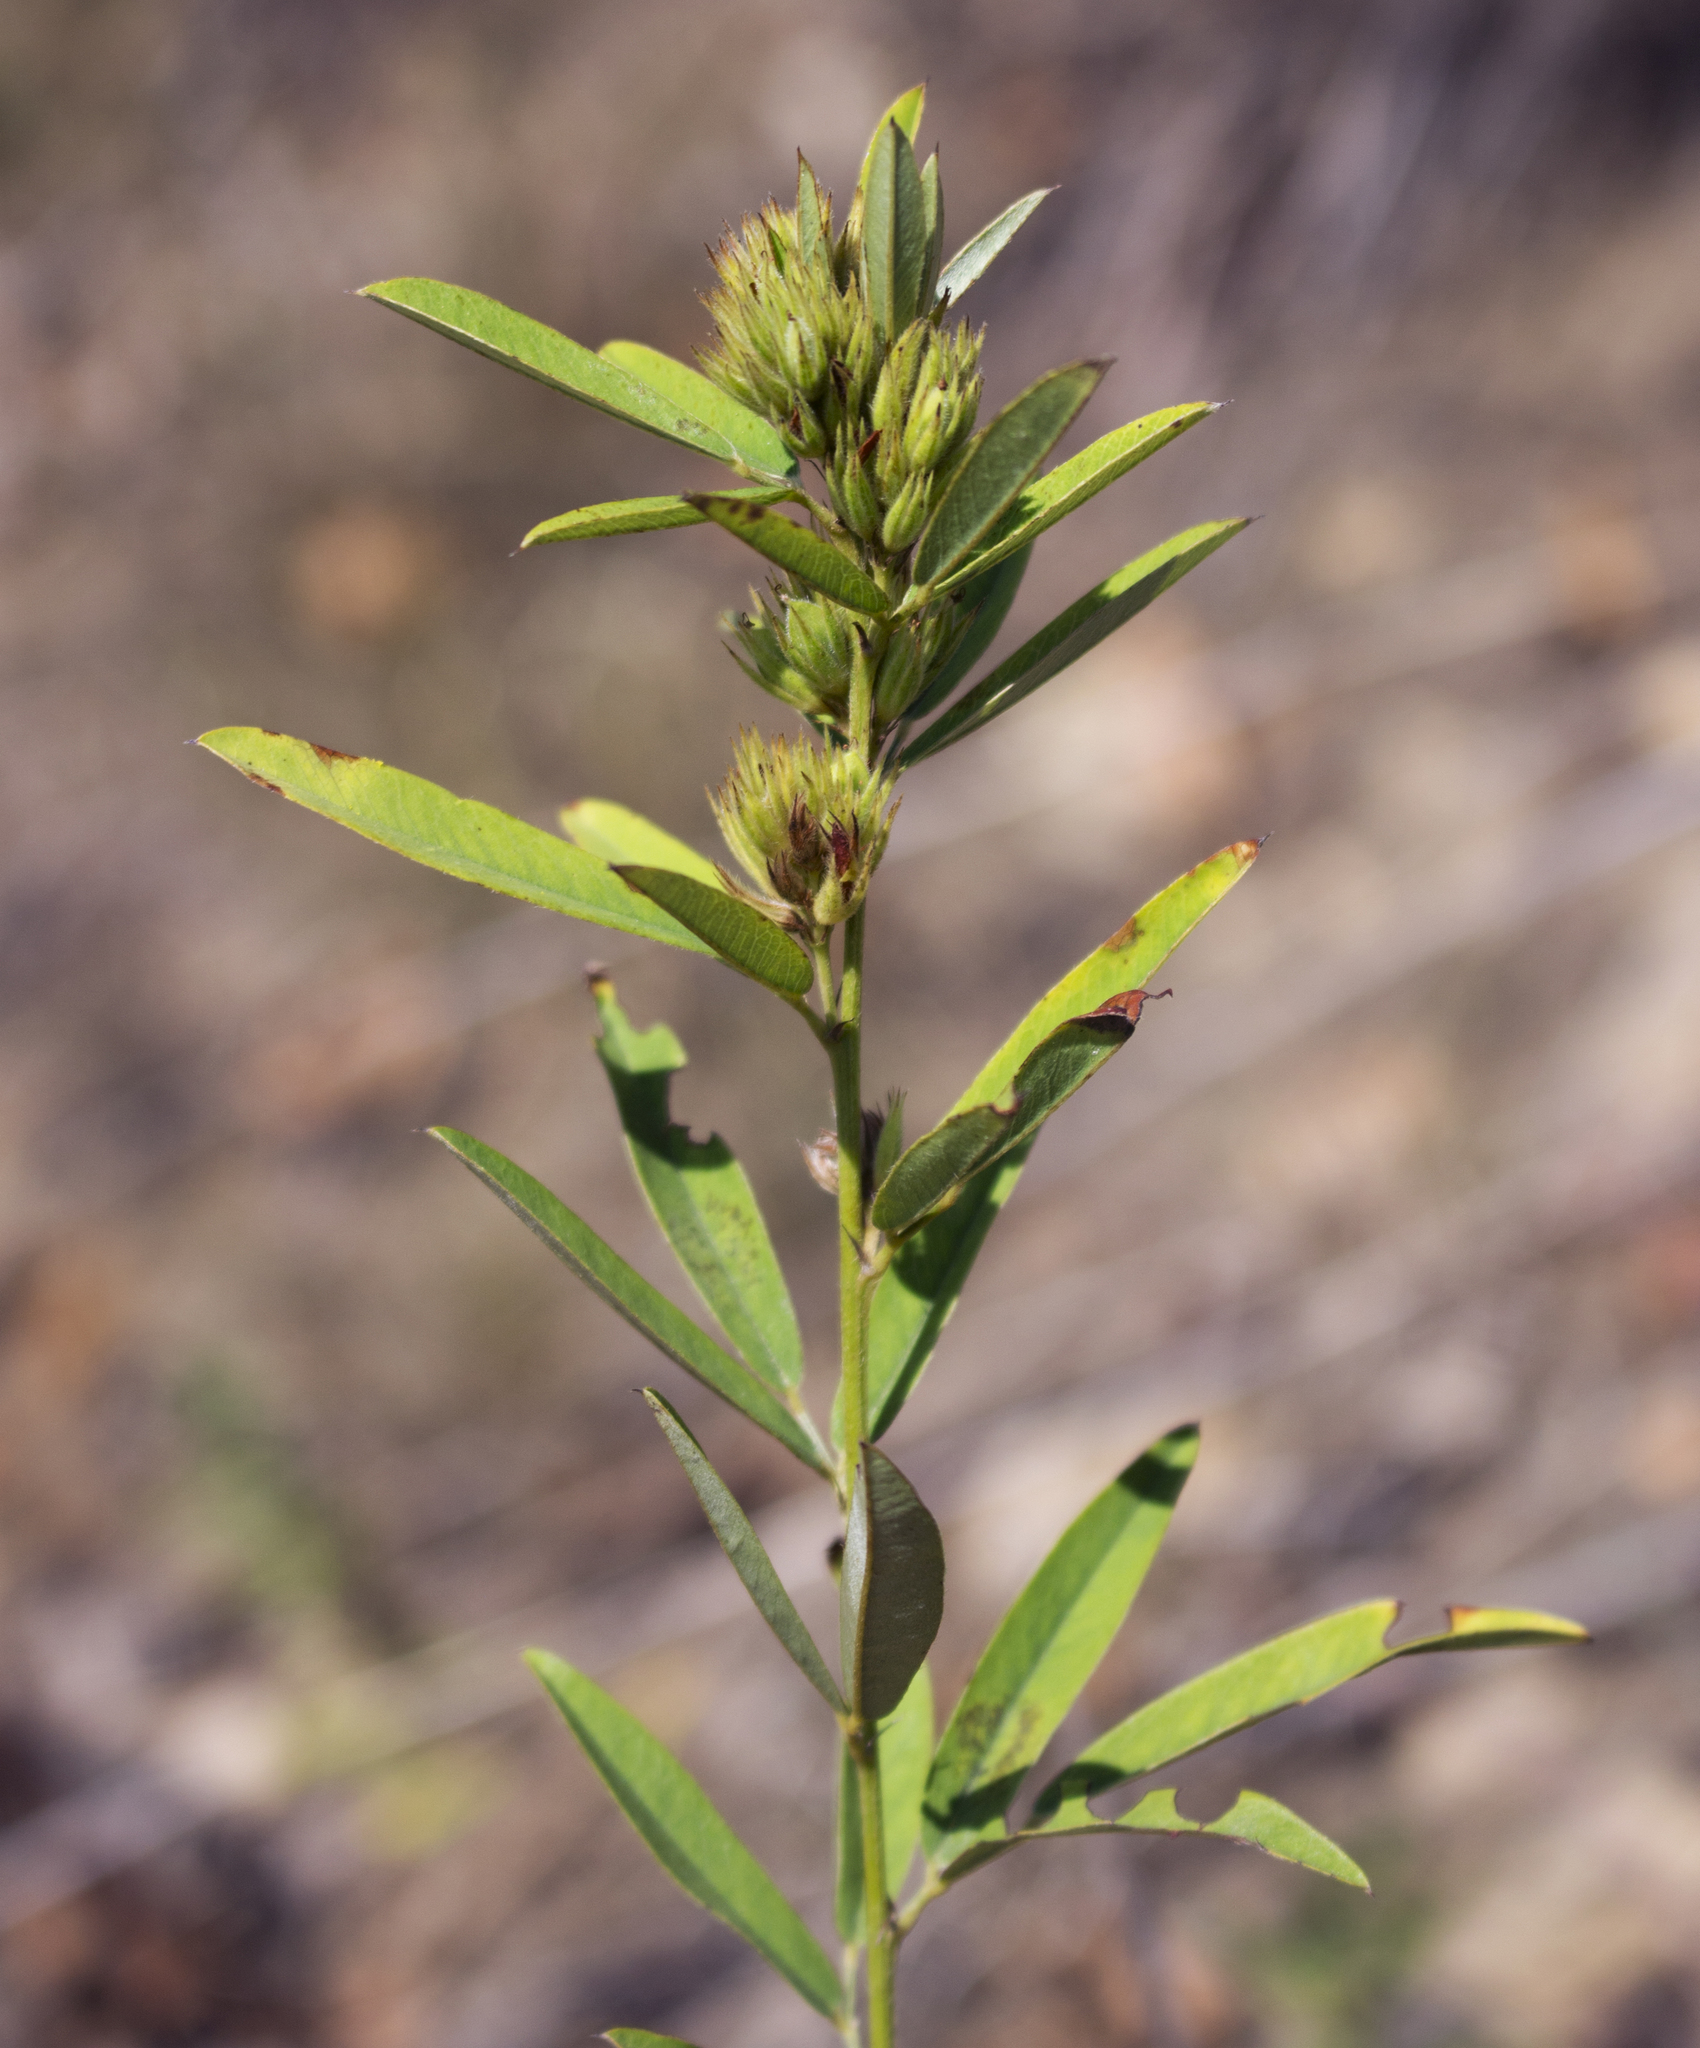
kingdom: Plantae
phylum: Tracheophyta
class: Magnoliopsida
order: Fabales
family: Fabaceae
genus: Lespedeza
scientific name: Lespedeza capitata
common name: Dusty clover
